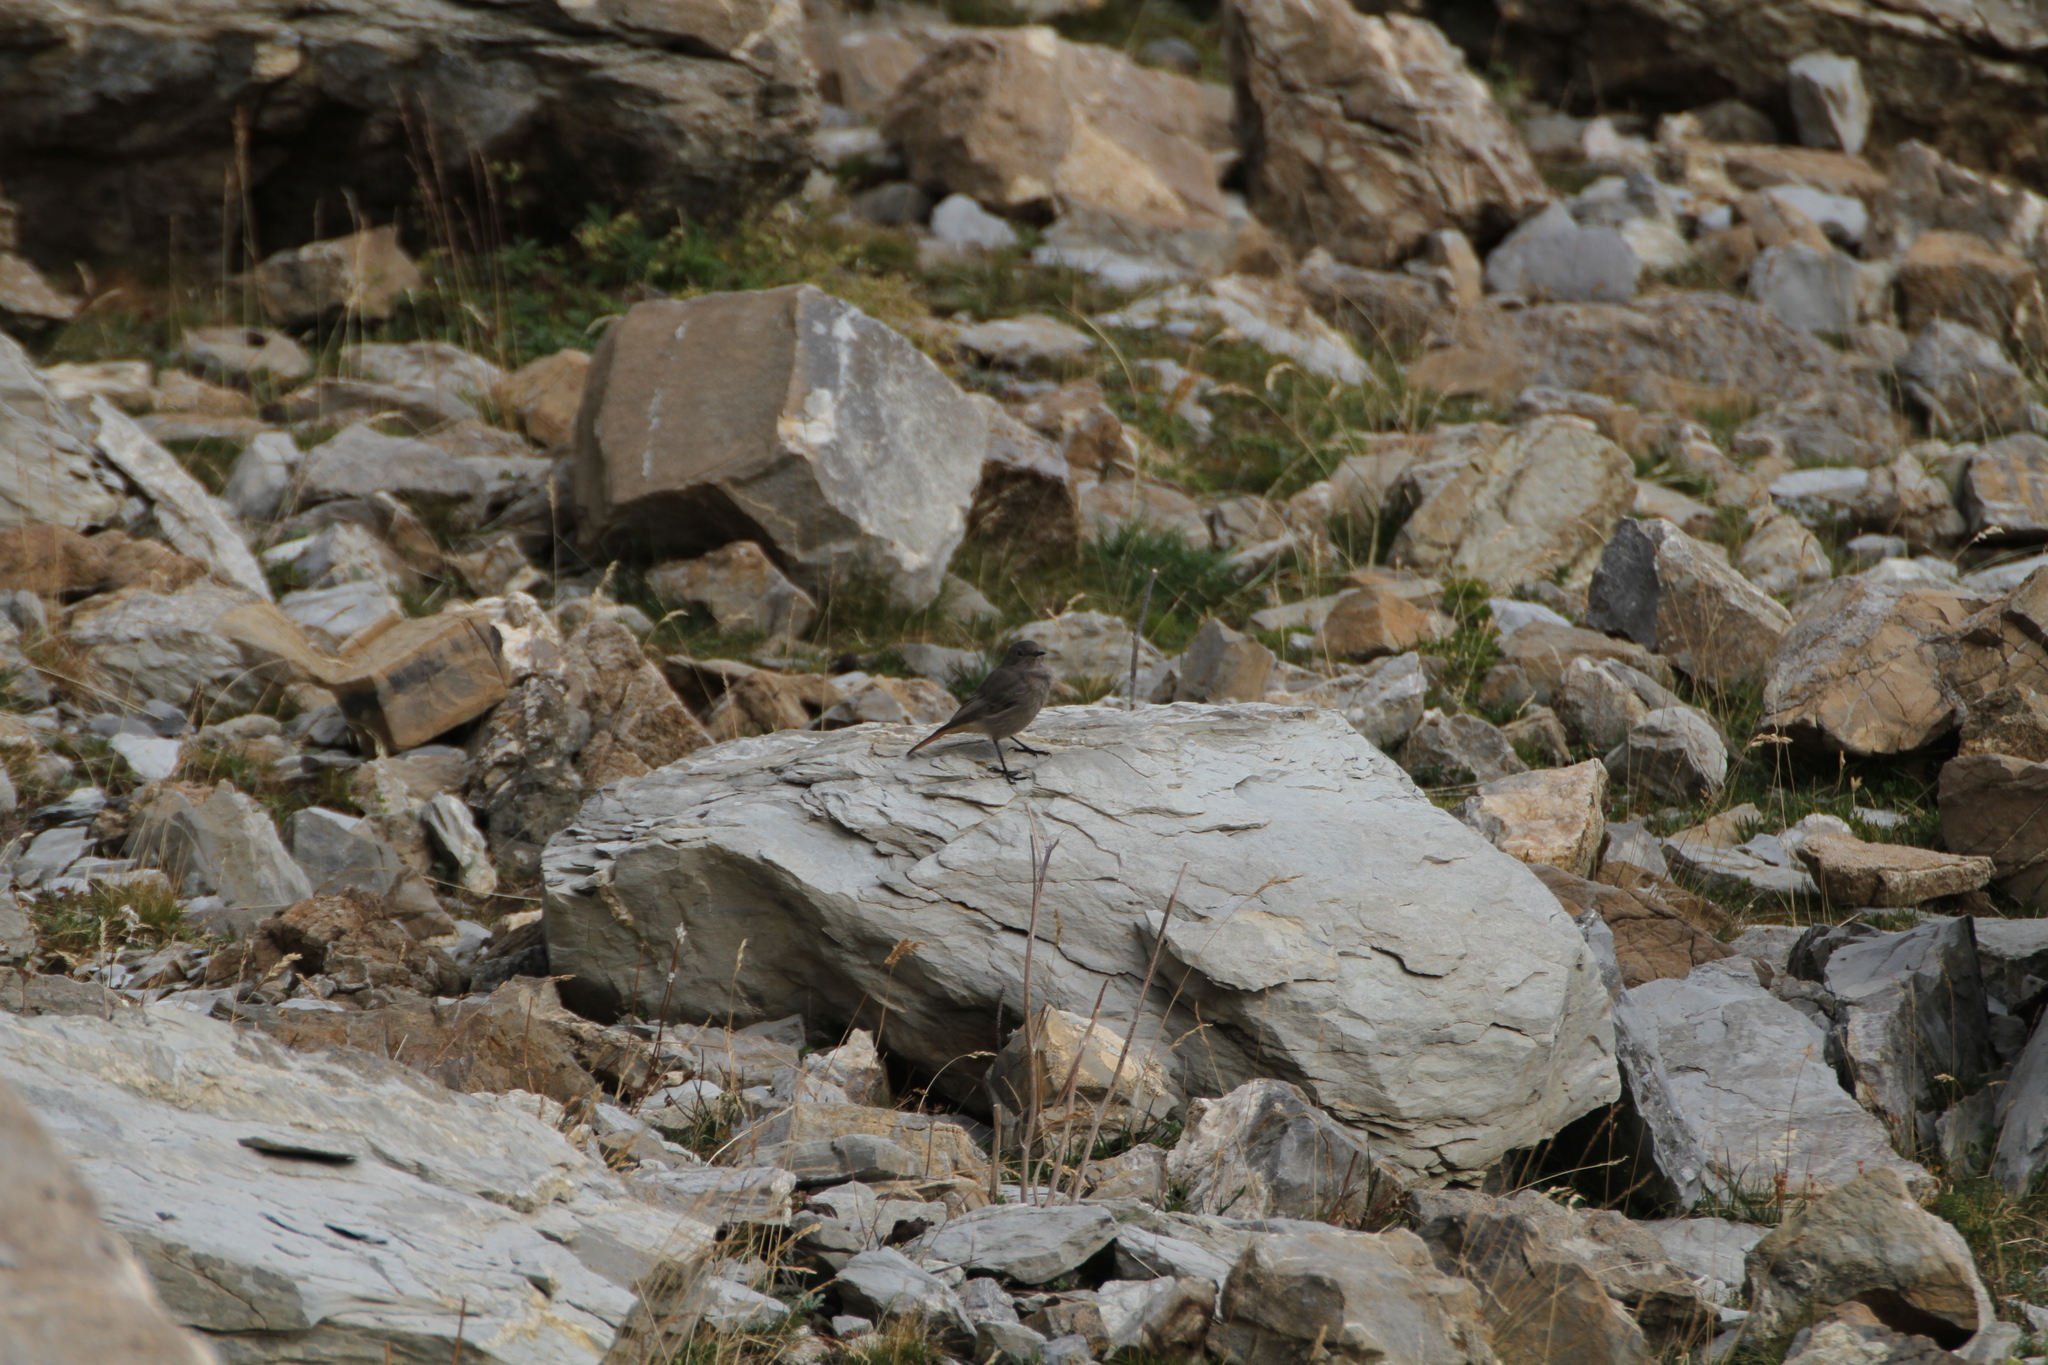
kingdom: Animalia
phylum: Chordata
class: Aves
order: Passeriformes
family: Muscicapidae
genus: Phoenicurus
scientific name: Phoenicurus ochruros
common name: Black redstart
